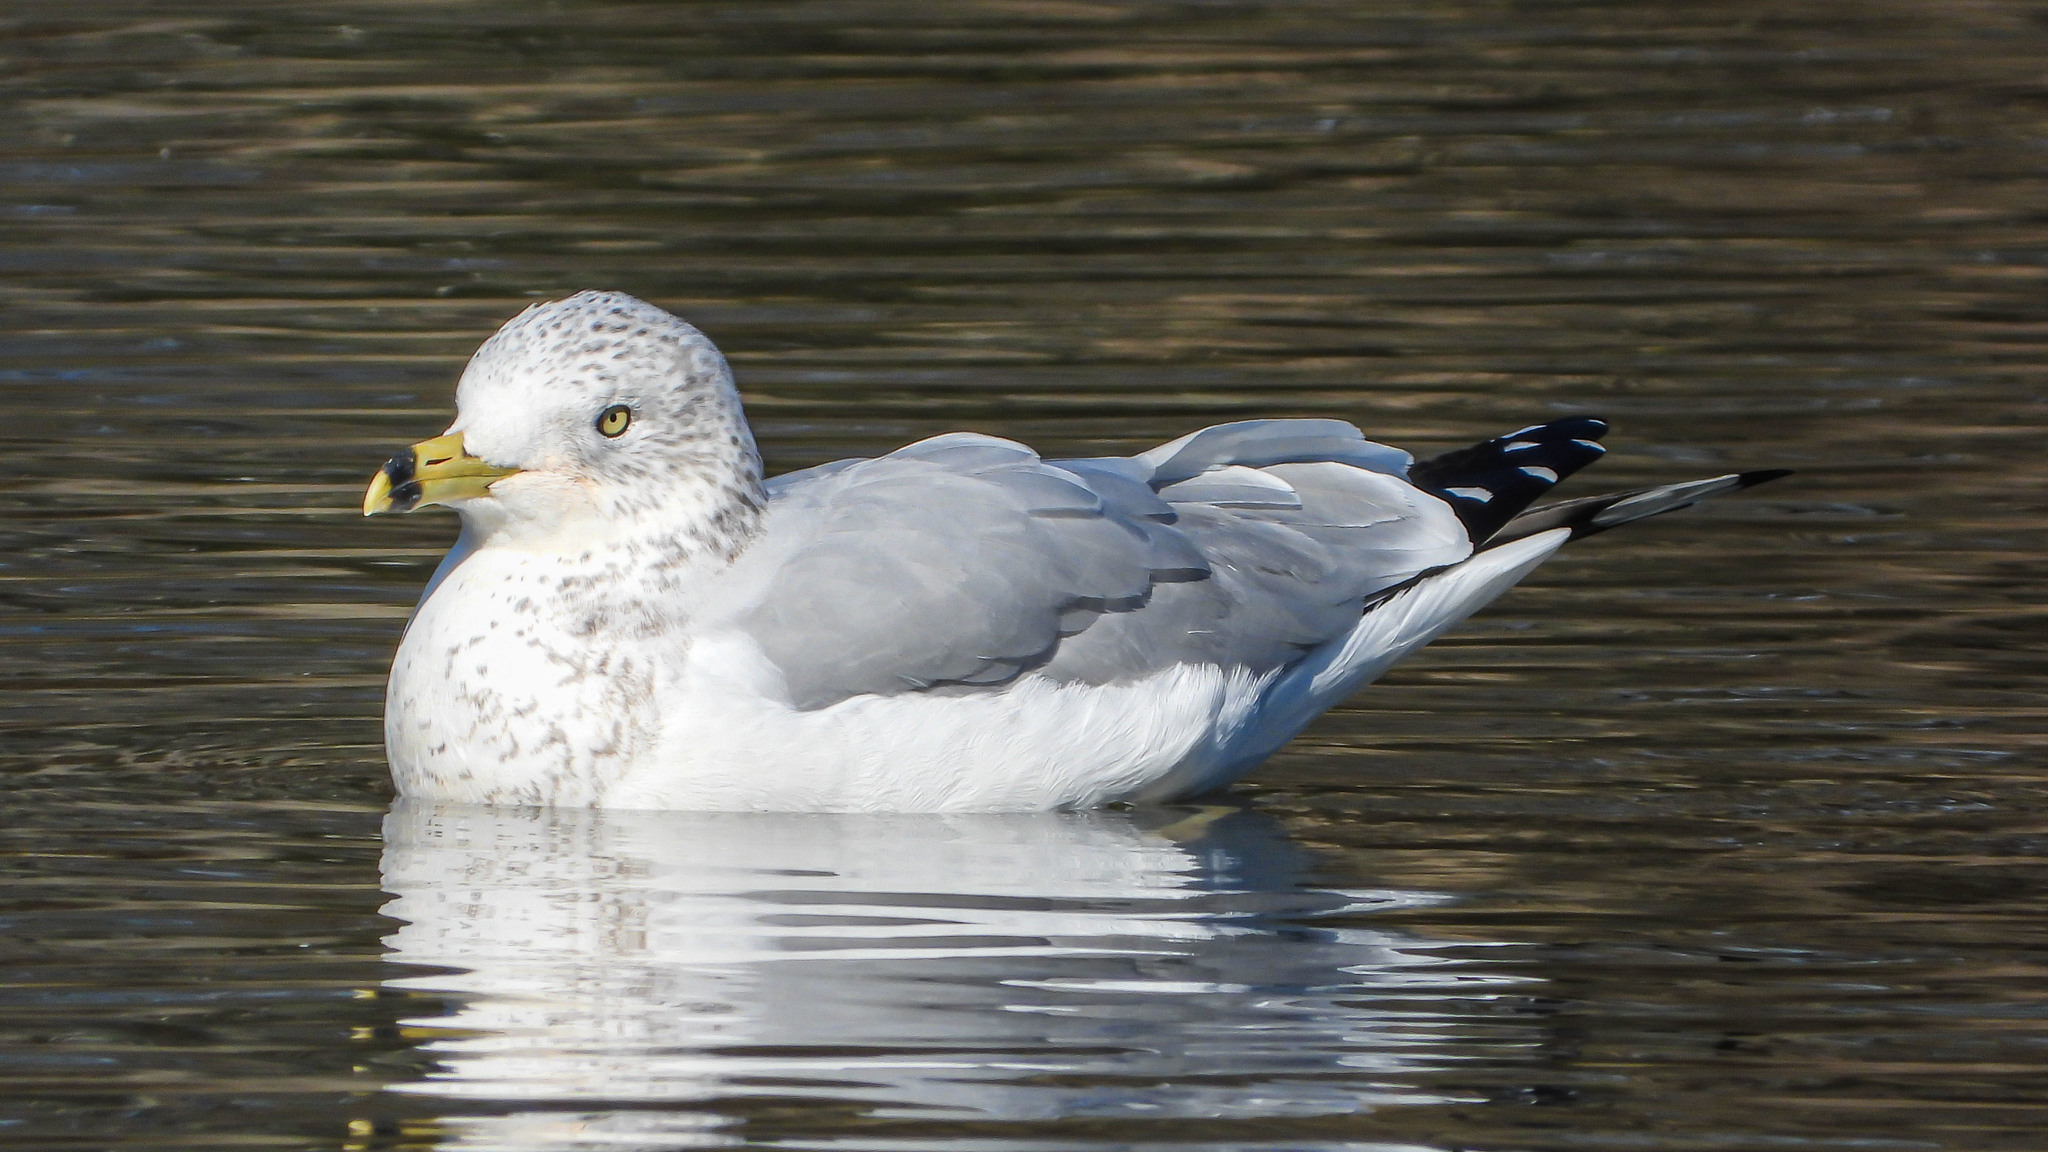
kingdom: Animalia
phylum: Chordata
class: Aves
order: Charadriiformes
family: Laridae
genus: Larus
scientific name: Larus delawarensis
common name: Ring-billed gull
